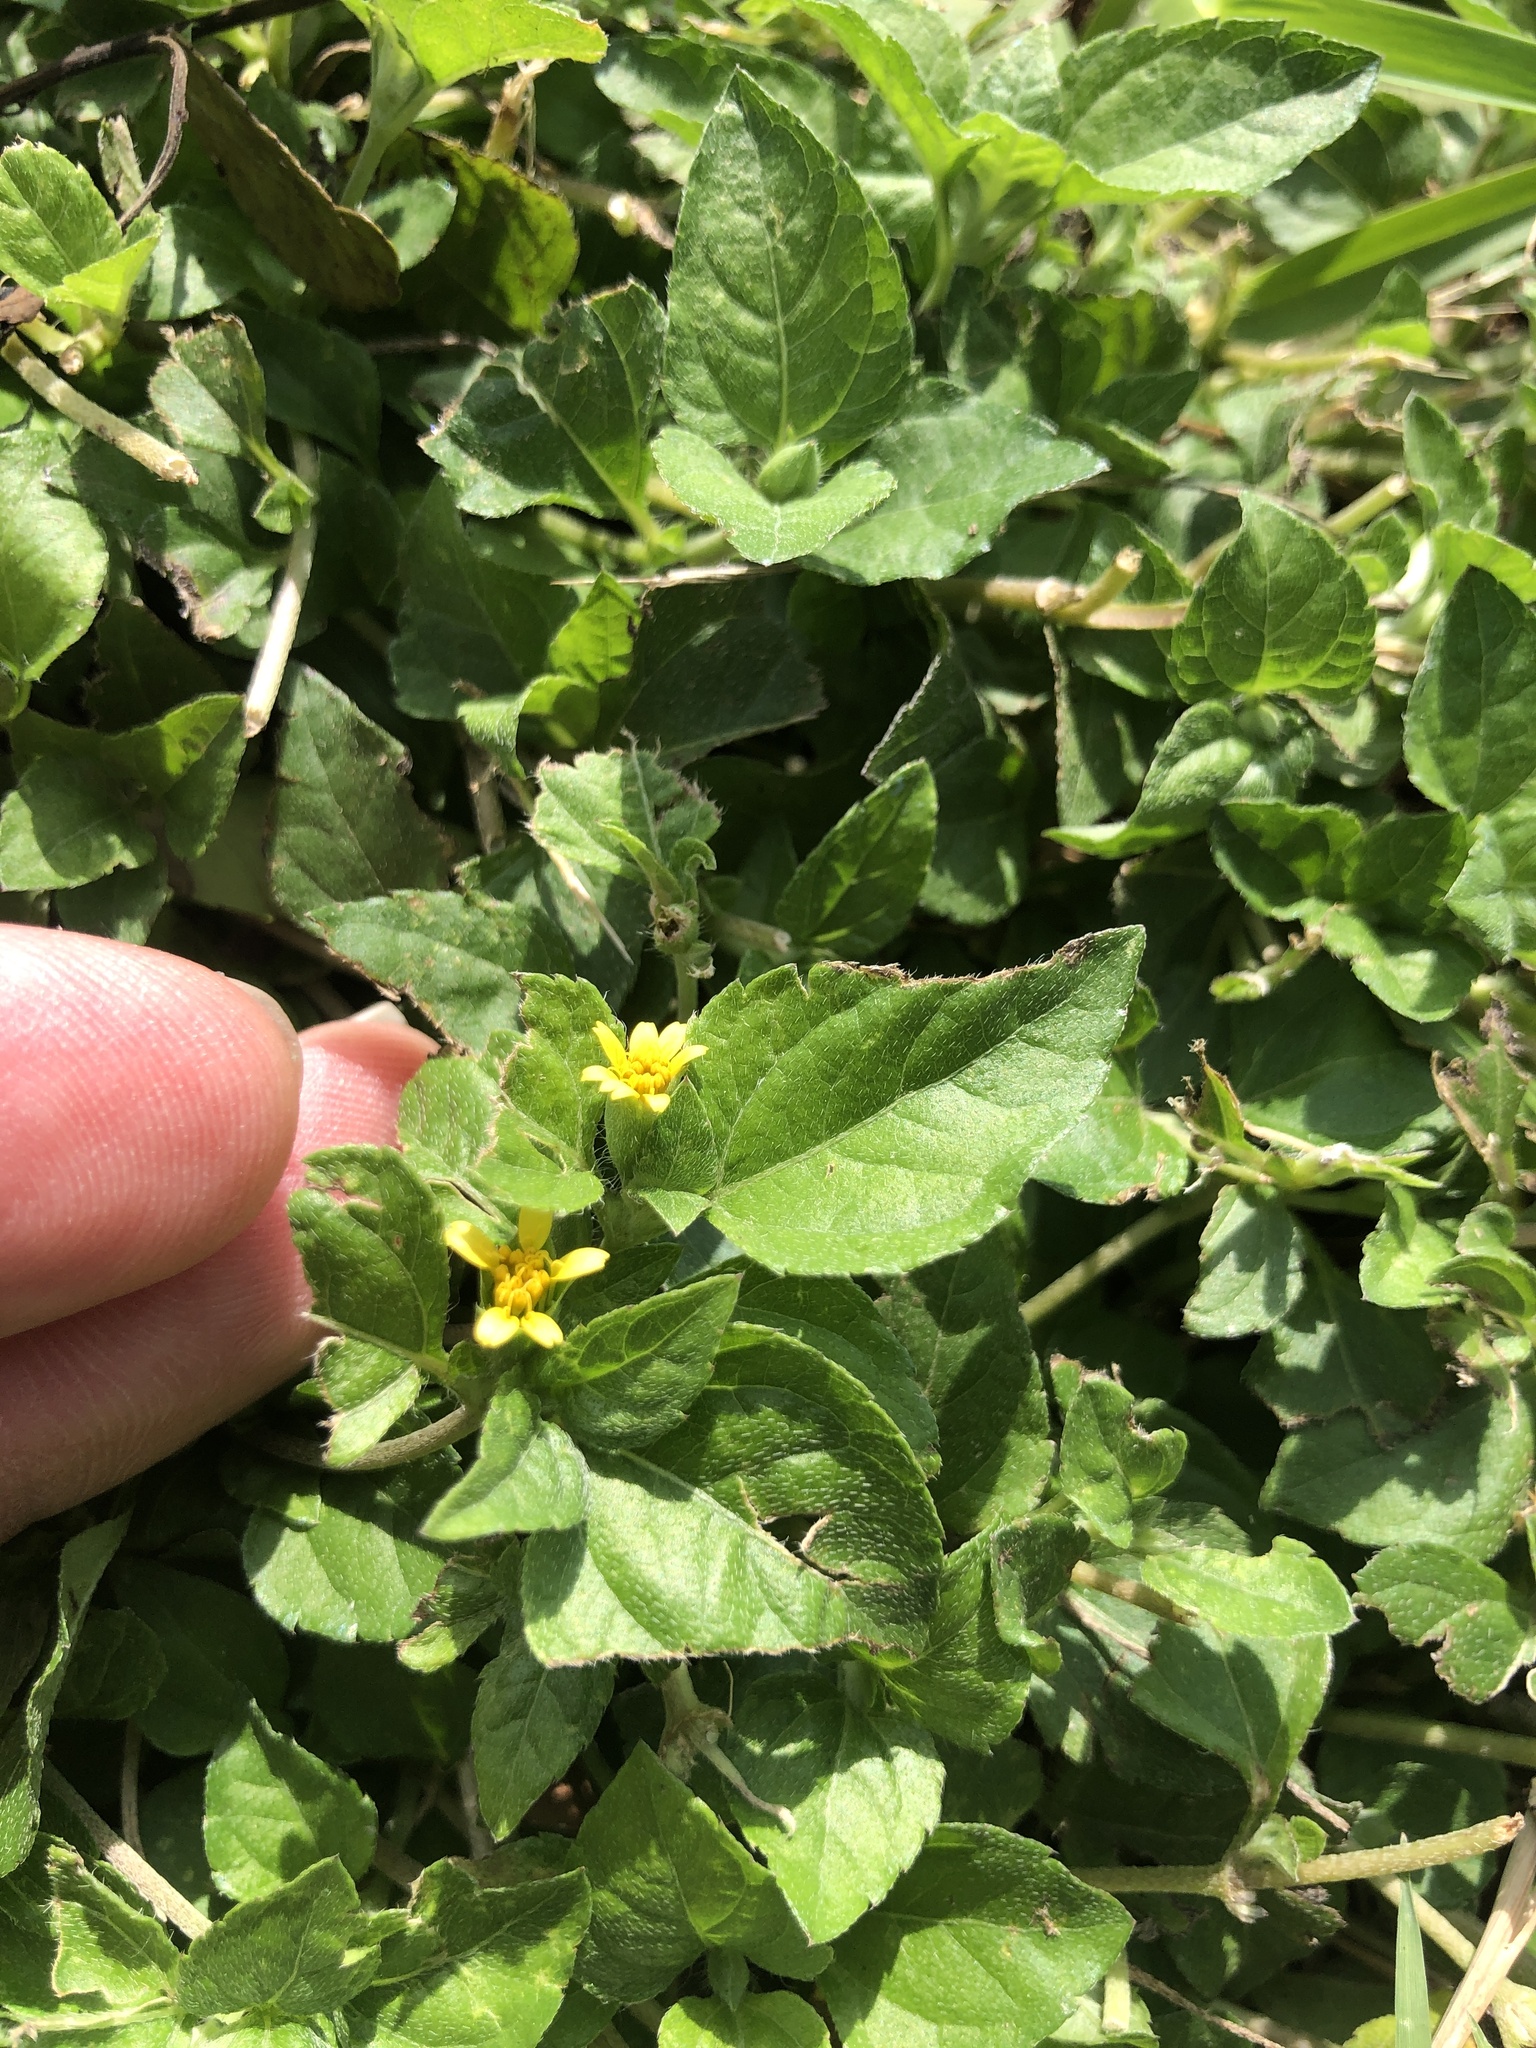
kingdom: Plantae
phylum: Tracheophyta
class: Magnoliopsida
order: Asterales
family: Asteraceae
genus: Calyptocarpus
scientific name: Calyptocarpus vialis
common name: Straggler daisy
